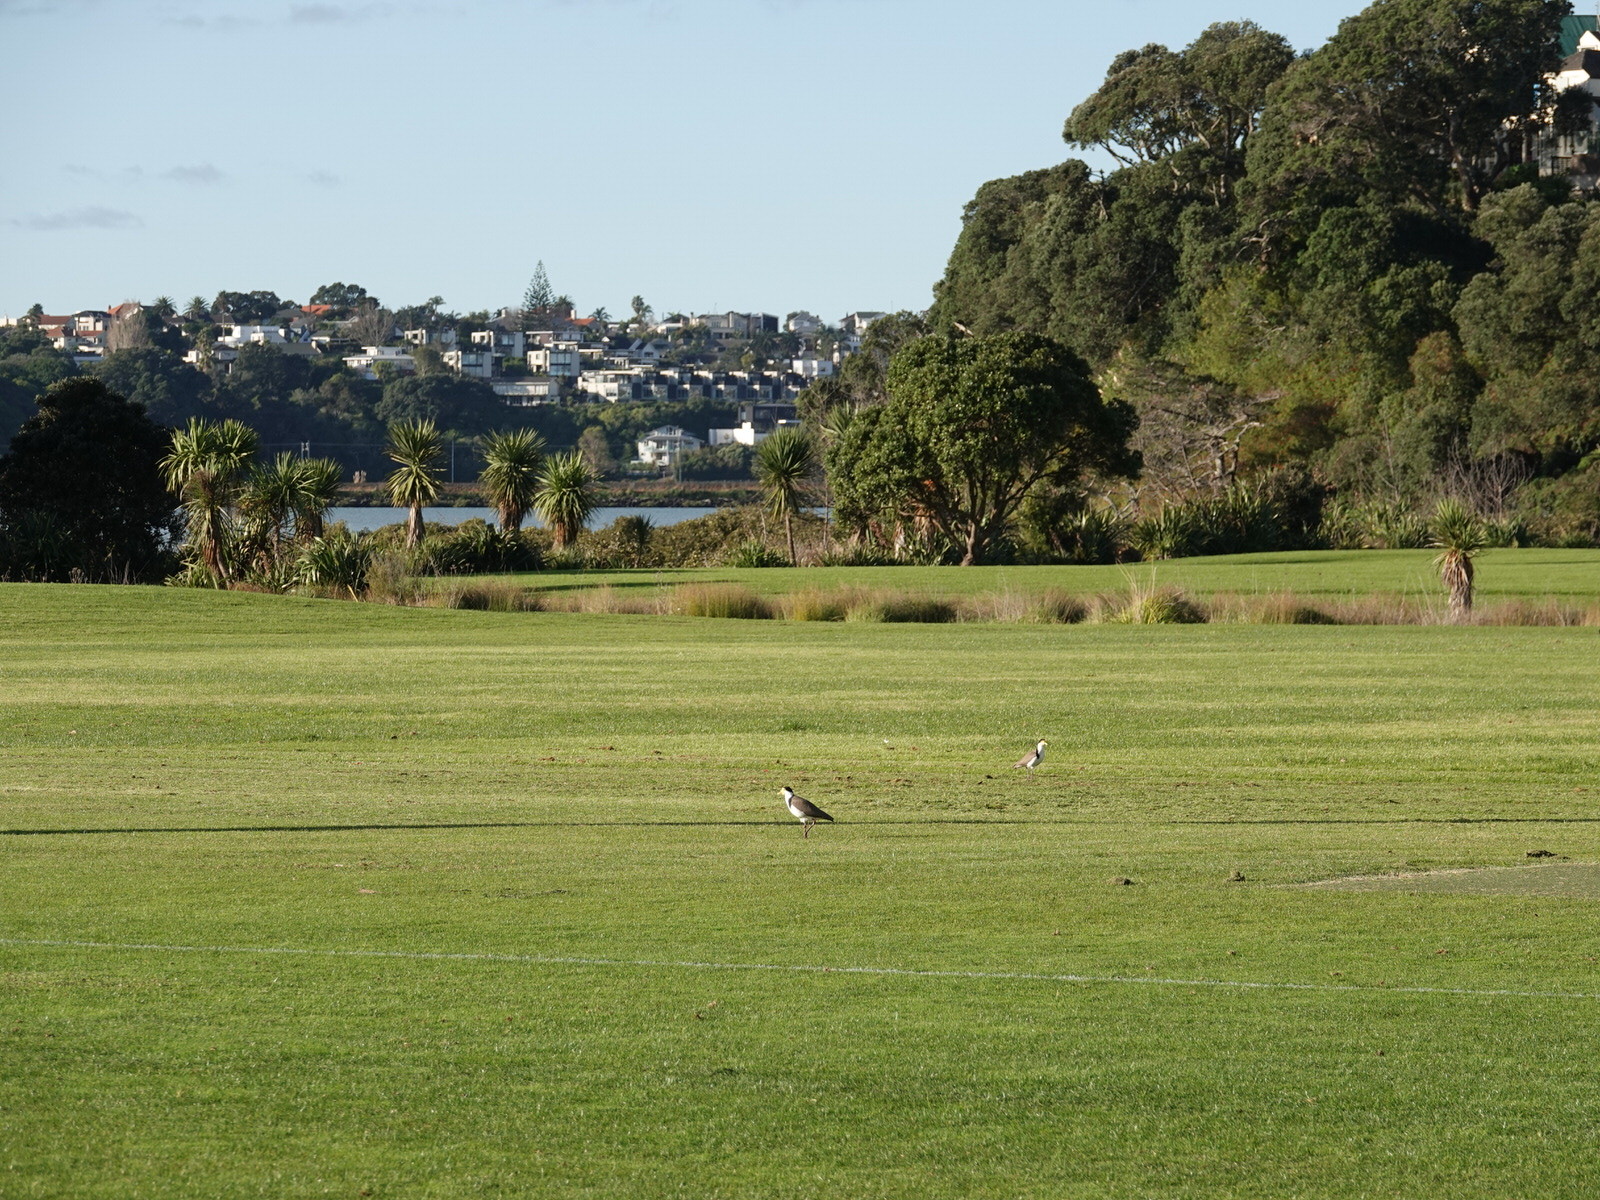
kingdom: Animalia
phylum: Chordata
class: Aves
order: Charadriiformes
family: Charadriidae
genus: Vanellus
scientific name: Vanellus miles
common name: Masked lapwing
